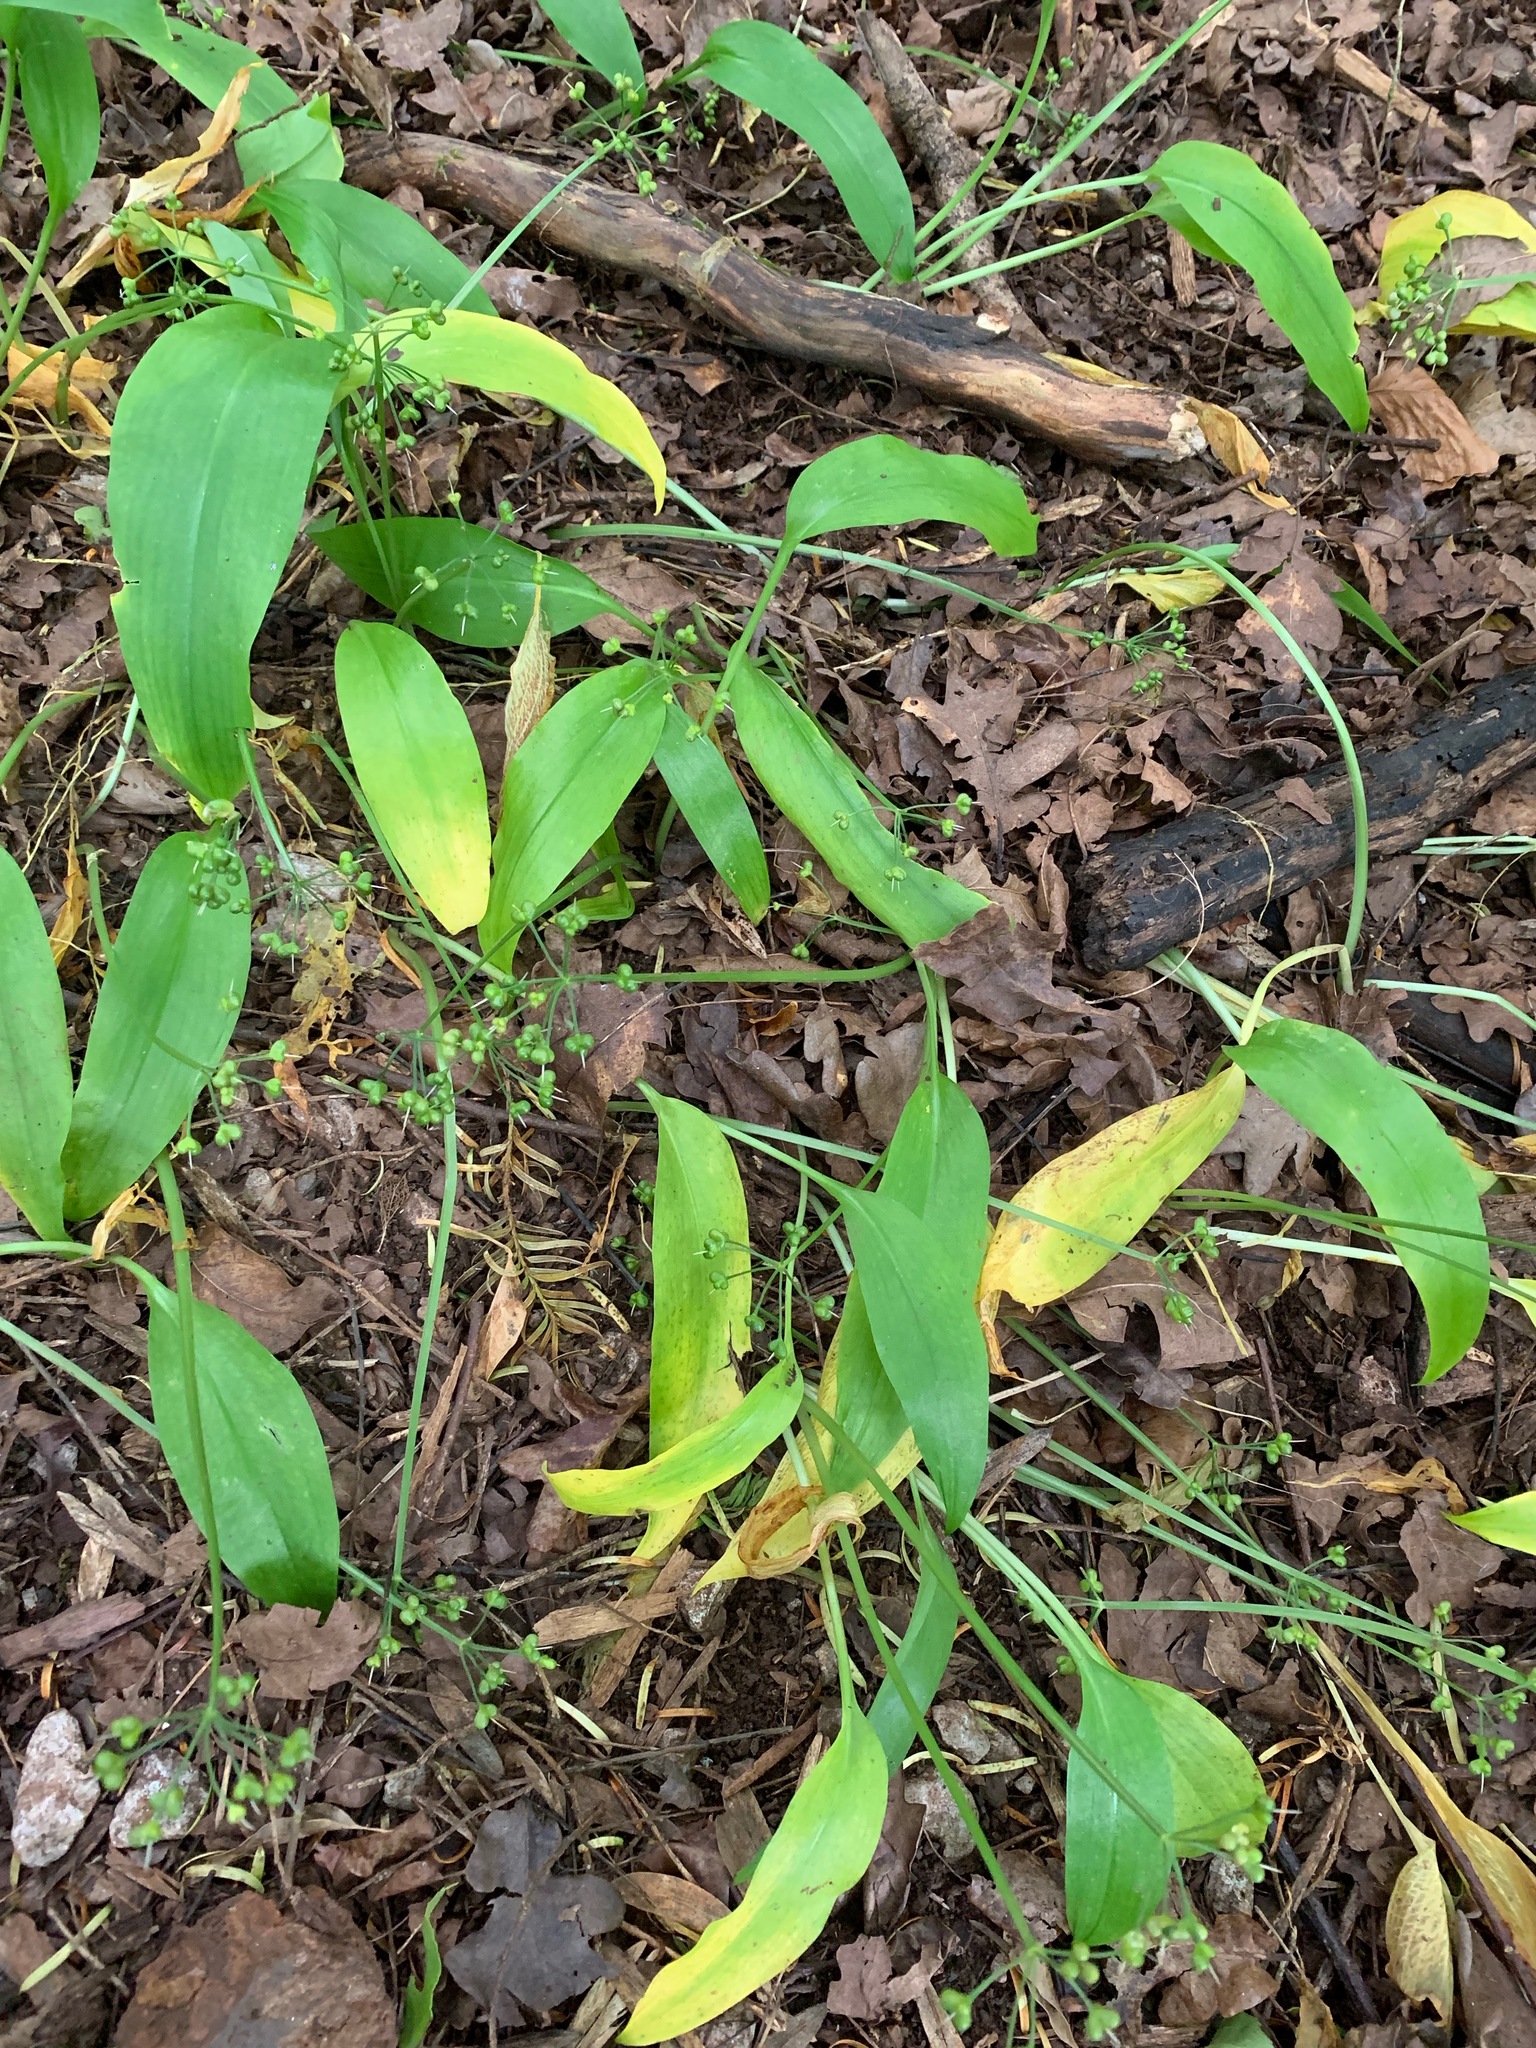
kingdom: Plantae
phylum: Tracheophyta
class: Liliopsida
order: Asparagales
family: Amaryllidaceae
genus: Allium
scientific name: Allium ursinum
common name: Ramsons
